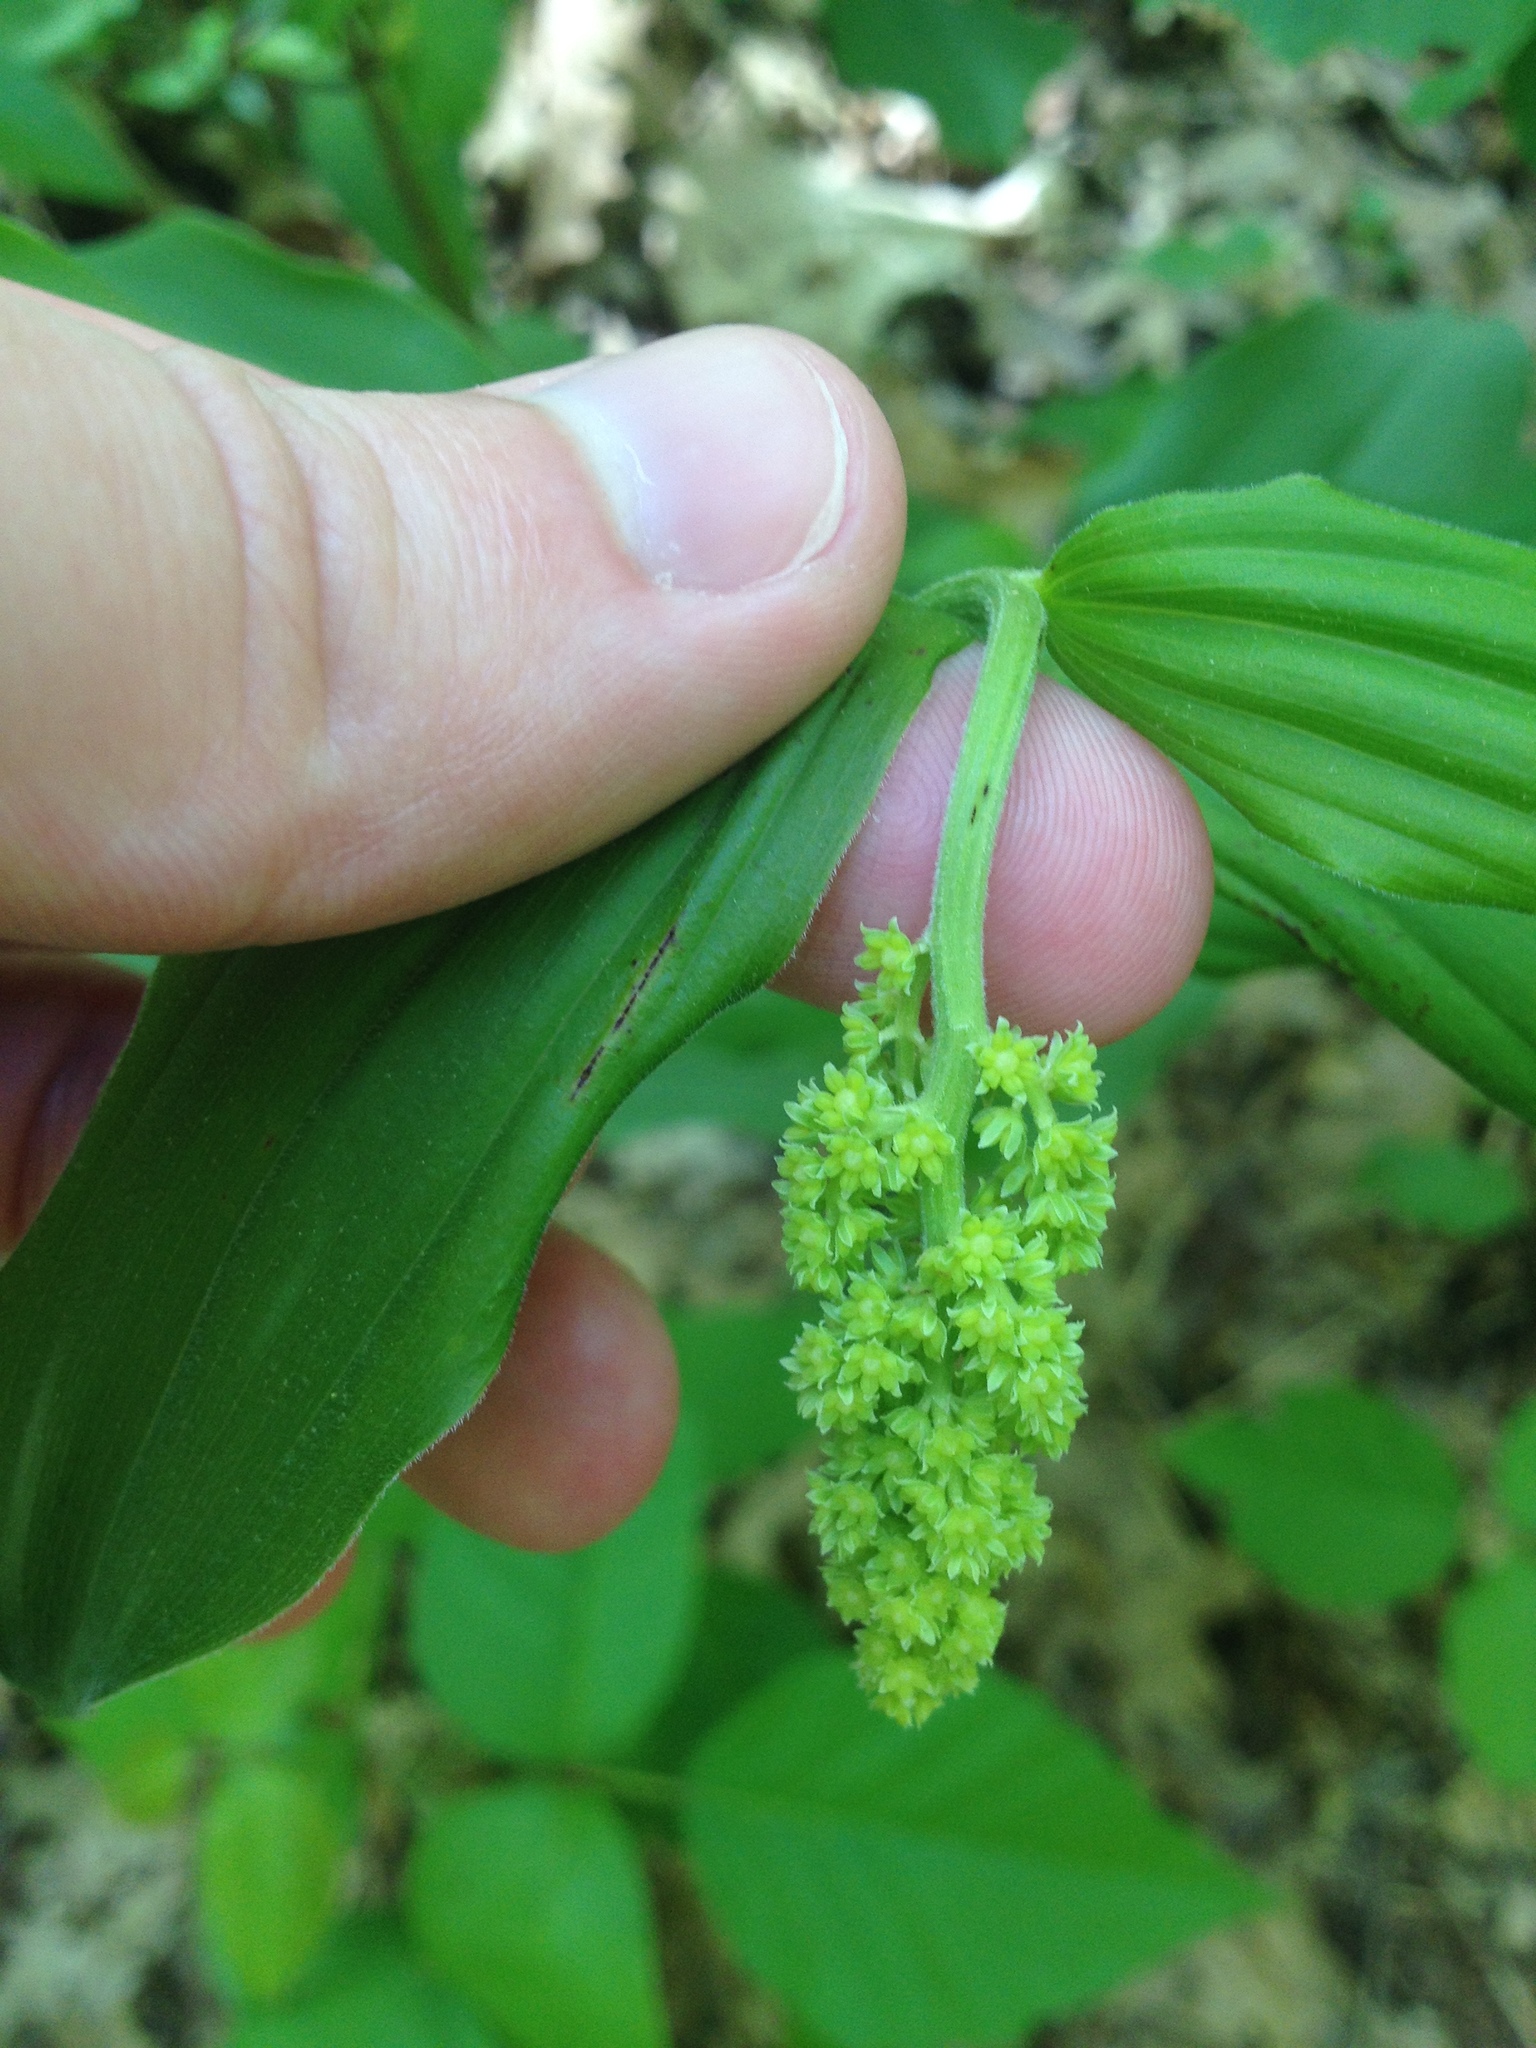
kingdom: Plantae
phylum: Tracheophyta
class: Liliopsida
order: Asparagales
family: Asparagaceae
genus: Maianthemum
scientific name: Maianthemum racemosum
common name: False spikenard
